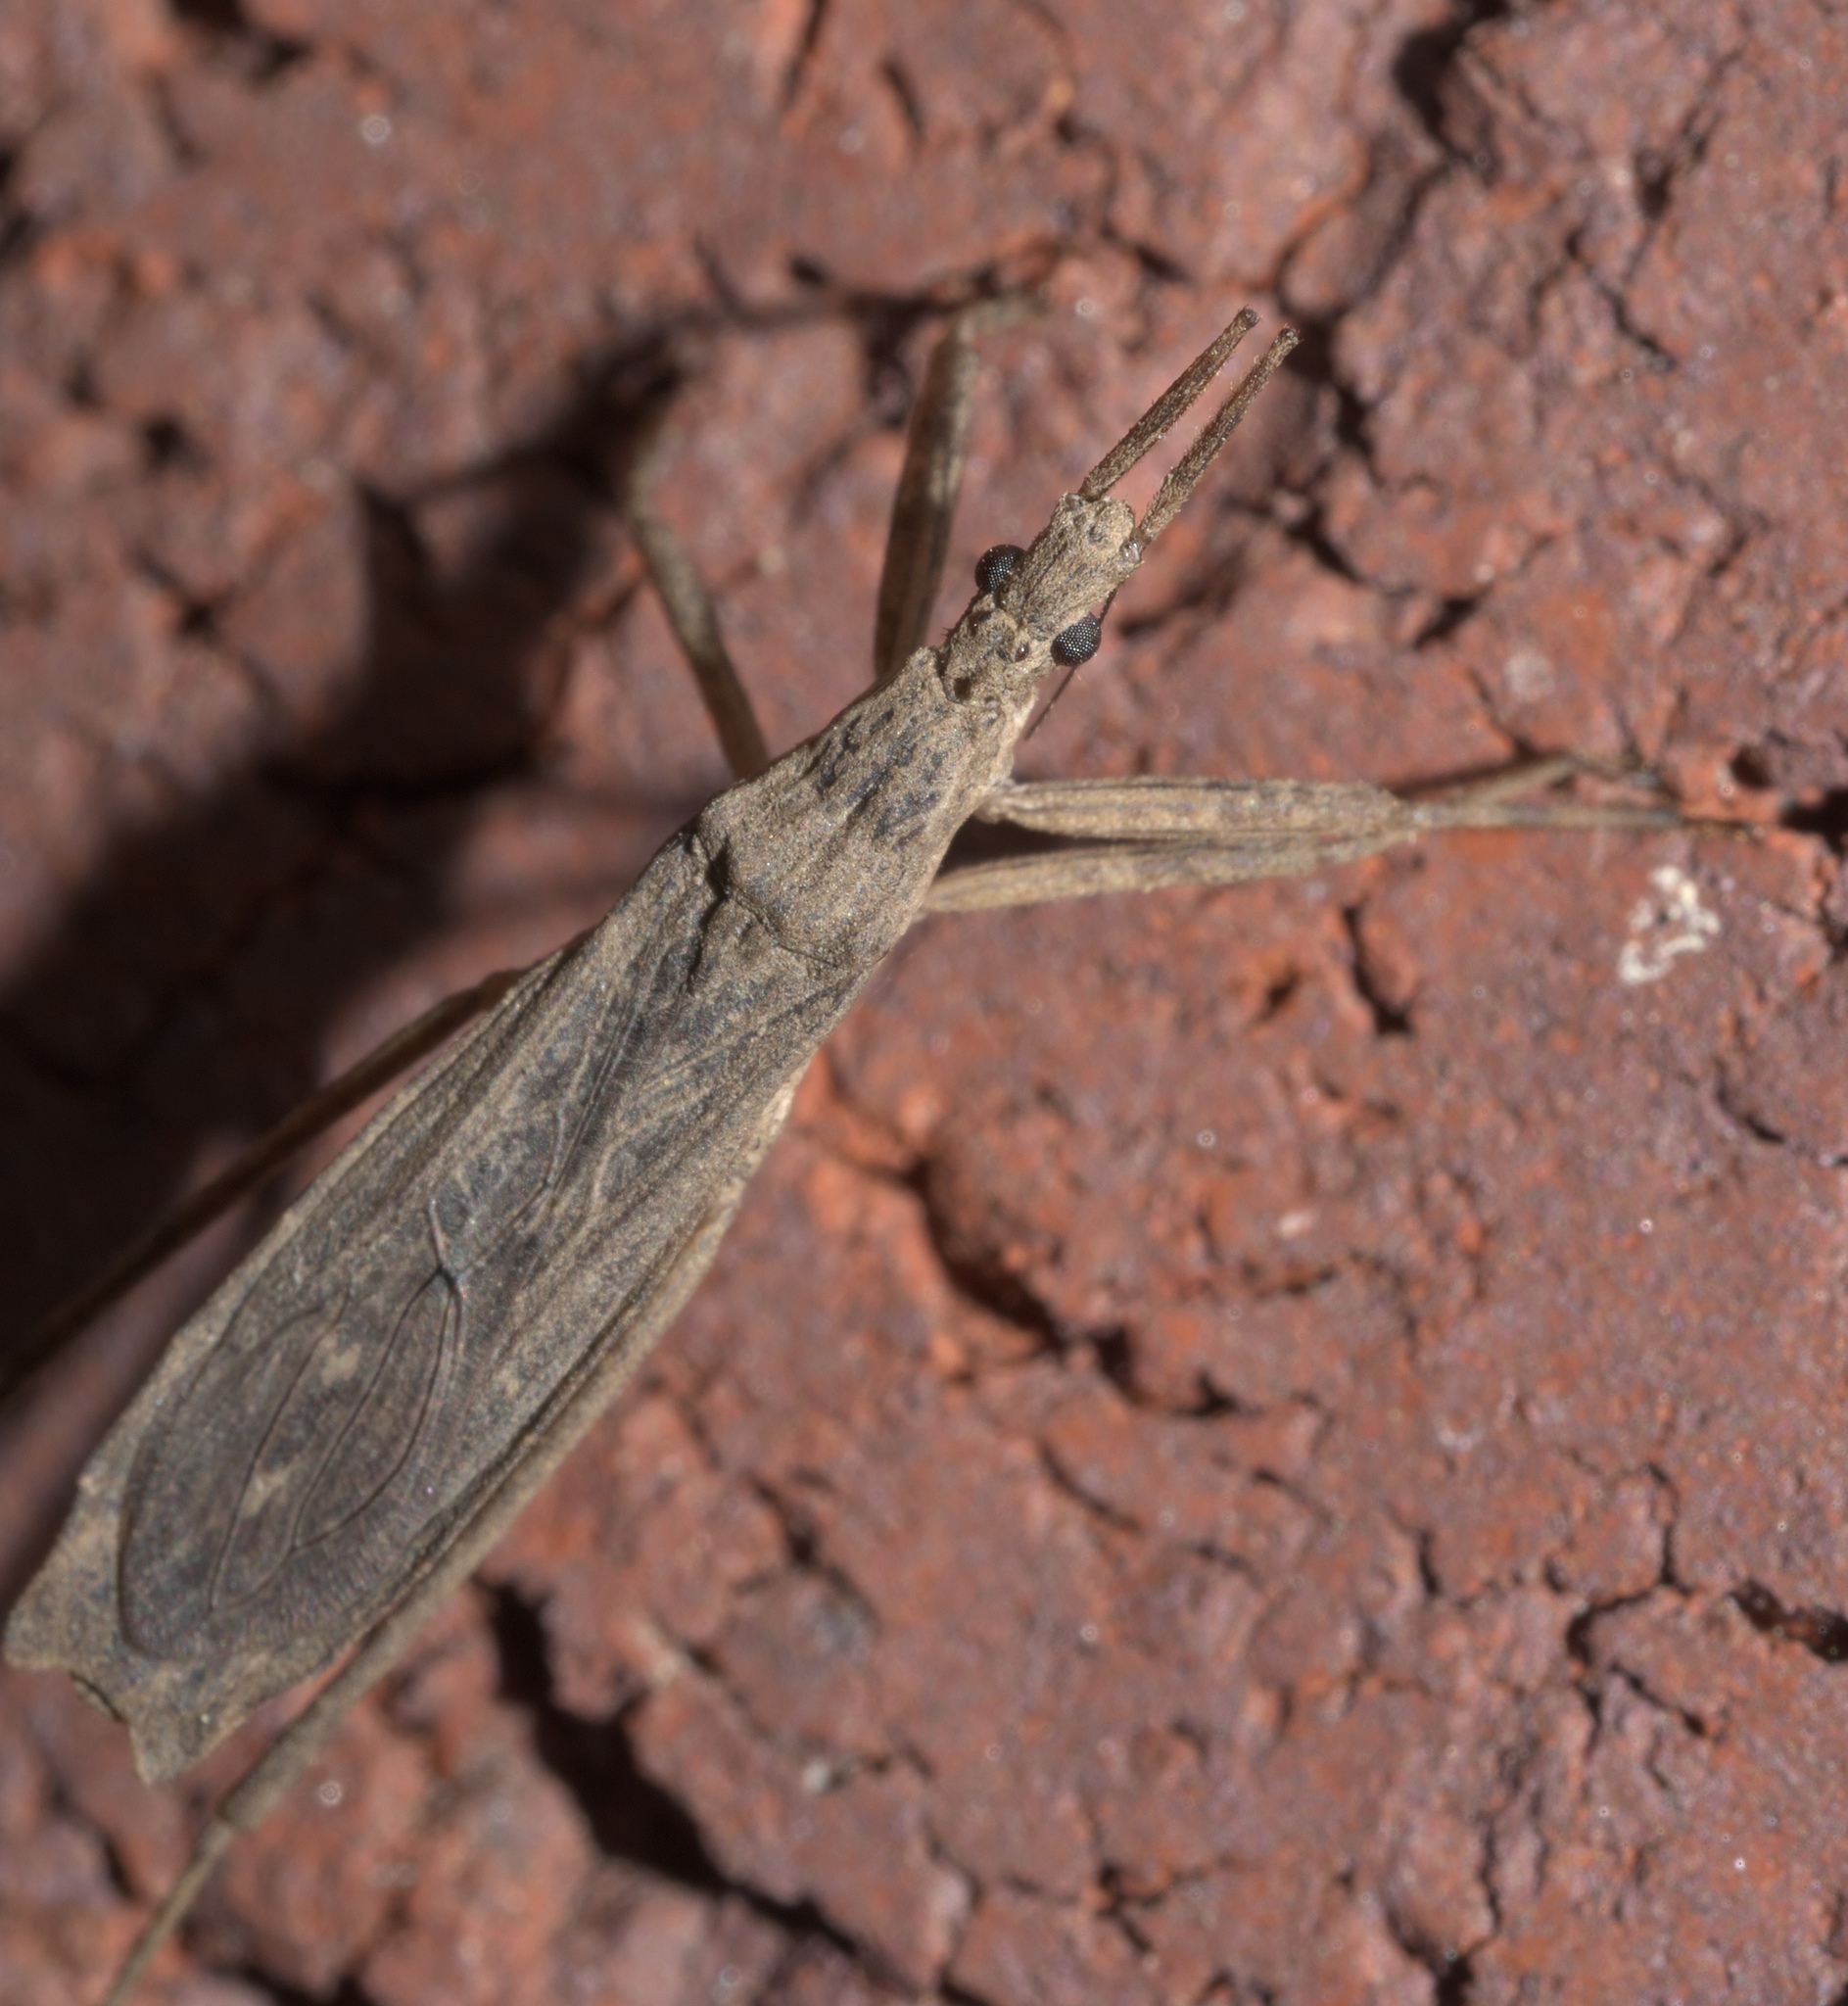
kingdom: Animalia
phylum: Arthropoda
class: Insecta
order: Hemiptera
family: Reduviidae
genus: Pygolampis
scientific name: Pygolampis pectoralis
